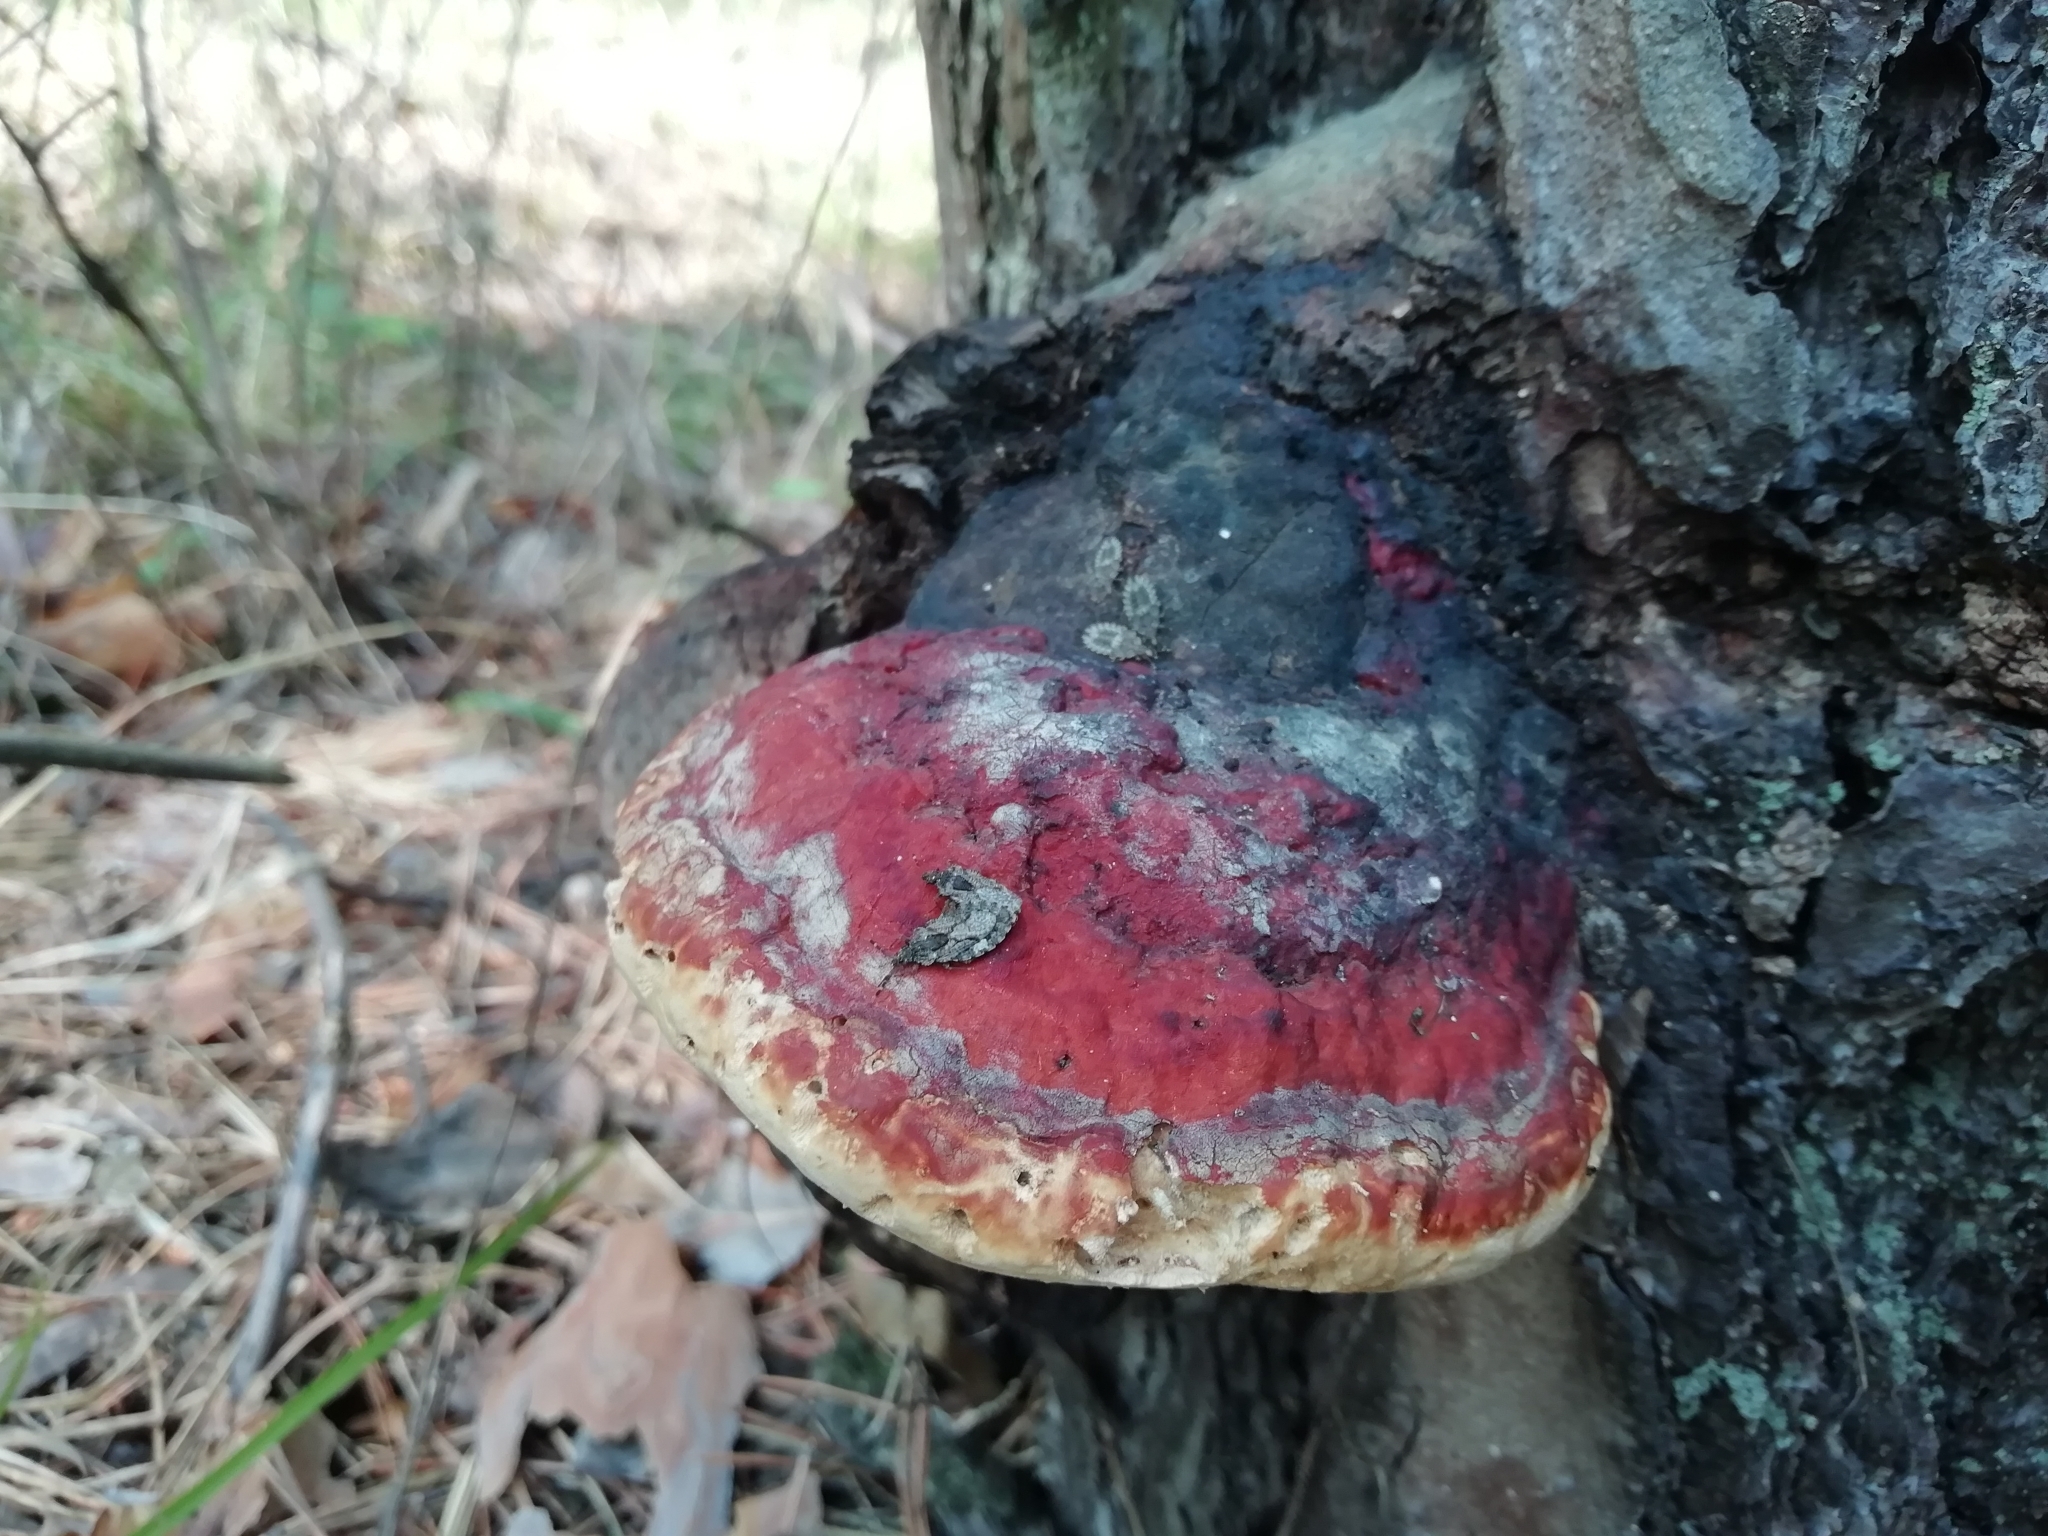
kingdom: Fungi
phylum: Basidiomycota
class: Agaricomycetes
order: Polyporales
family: Fomitopsidaceae
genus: Fomitopsis
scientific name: Fomitopsis pinicola
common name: Red-belted bracket
